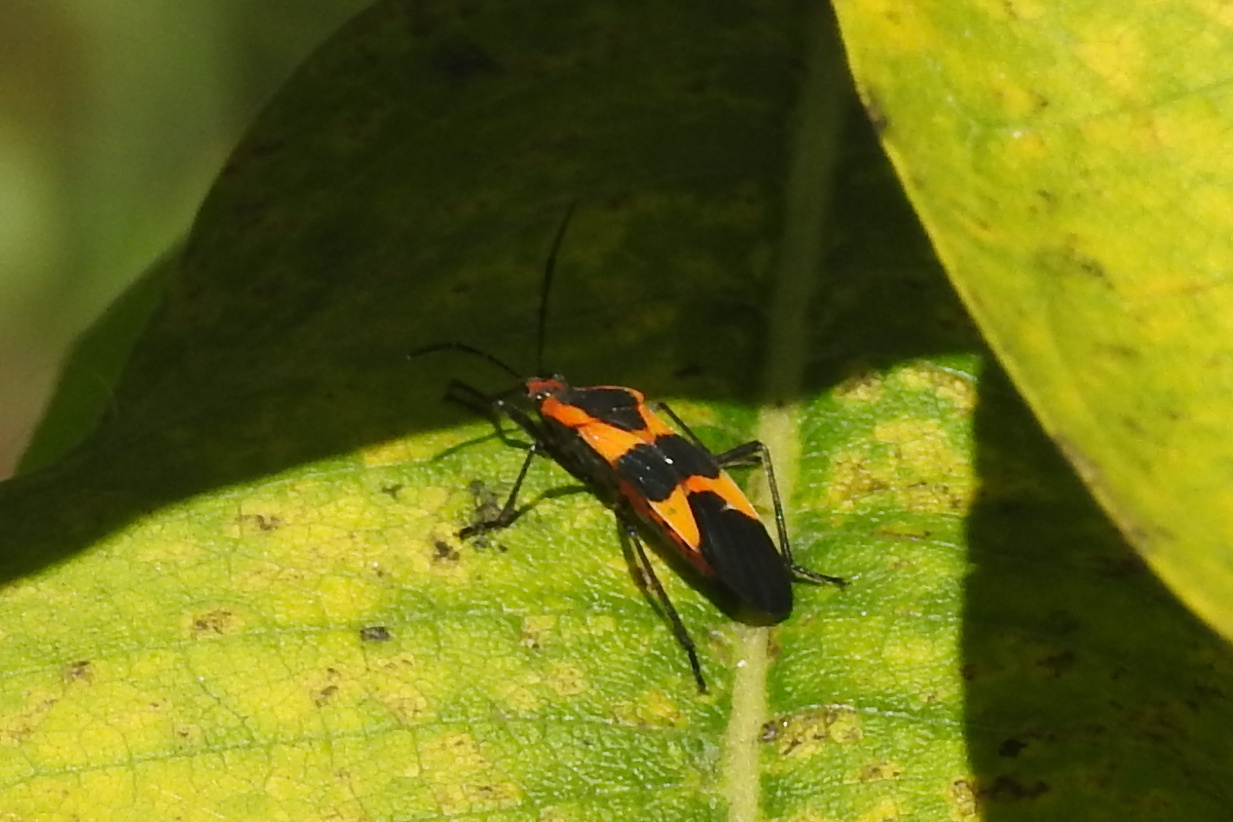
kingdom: Animalia
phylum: Arthropoda
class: Insecta
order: Hemiptera
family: Lygaeidae
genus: Oncopeltus
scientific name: Oncopeltus fasciatus
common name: Large milkweed bug
